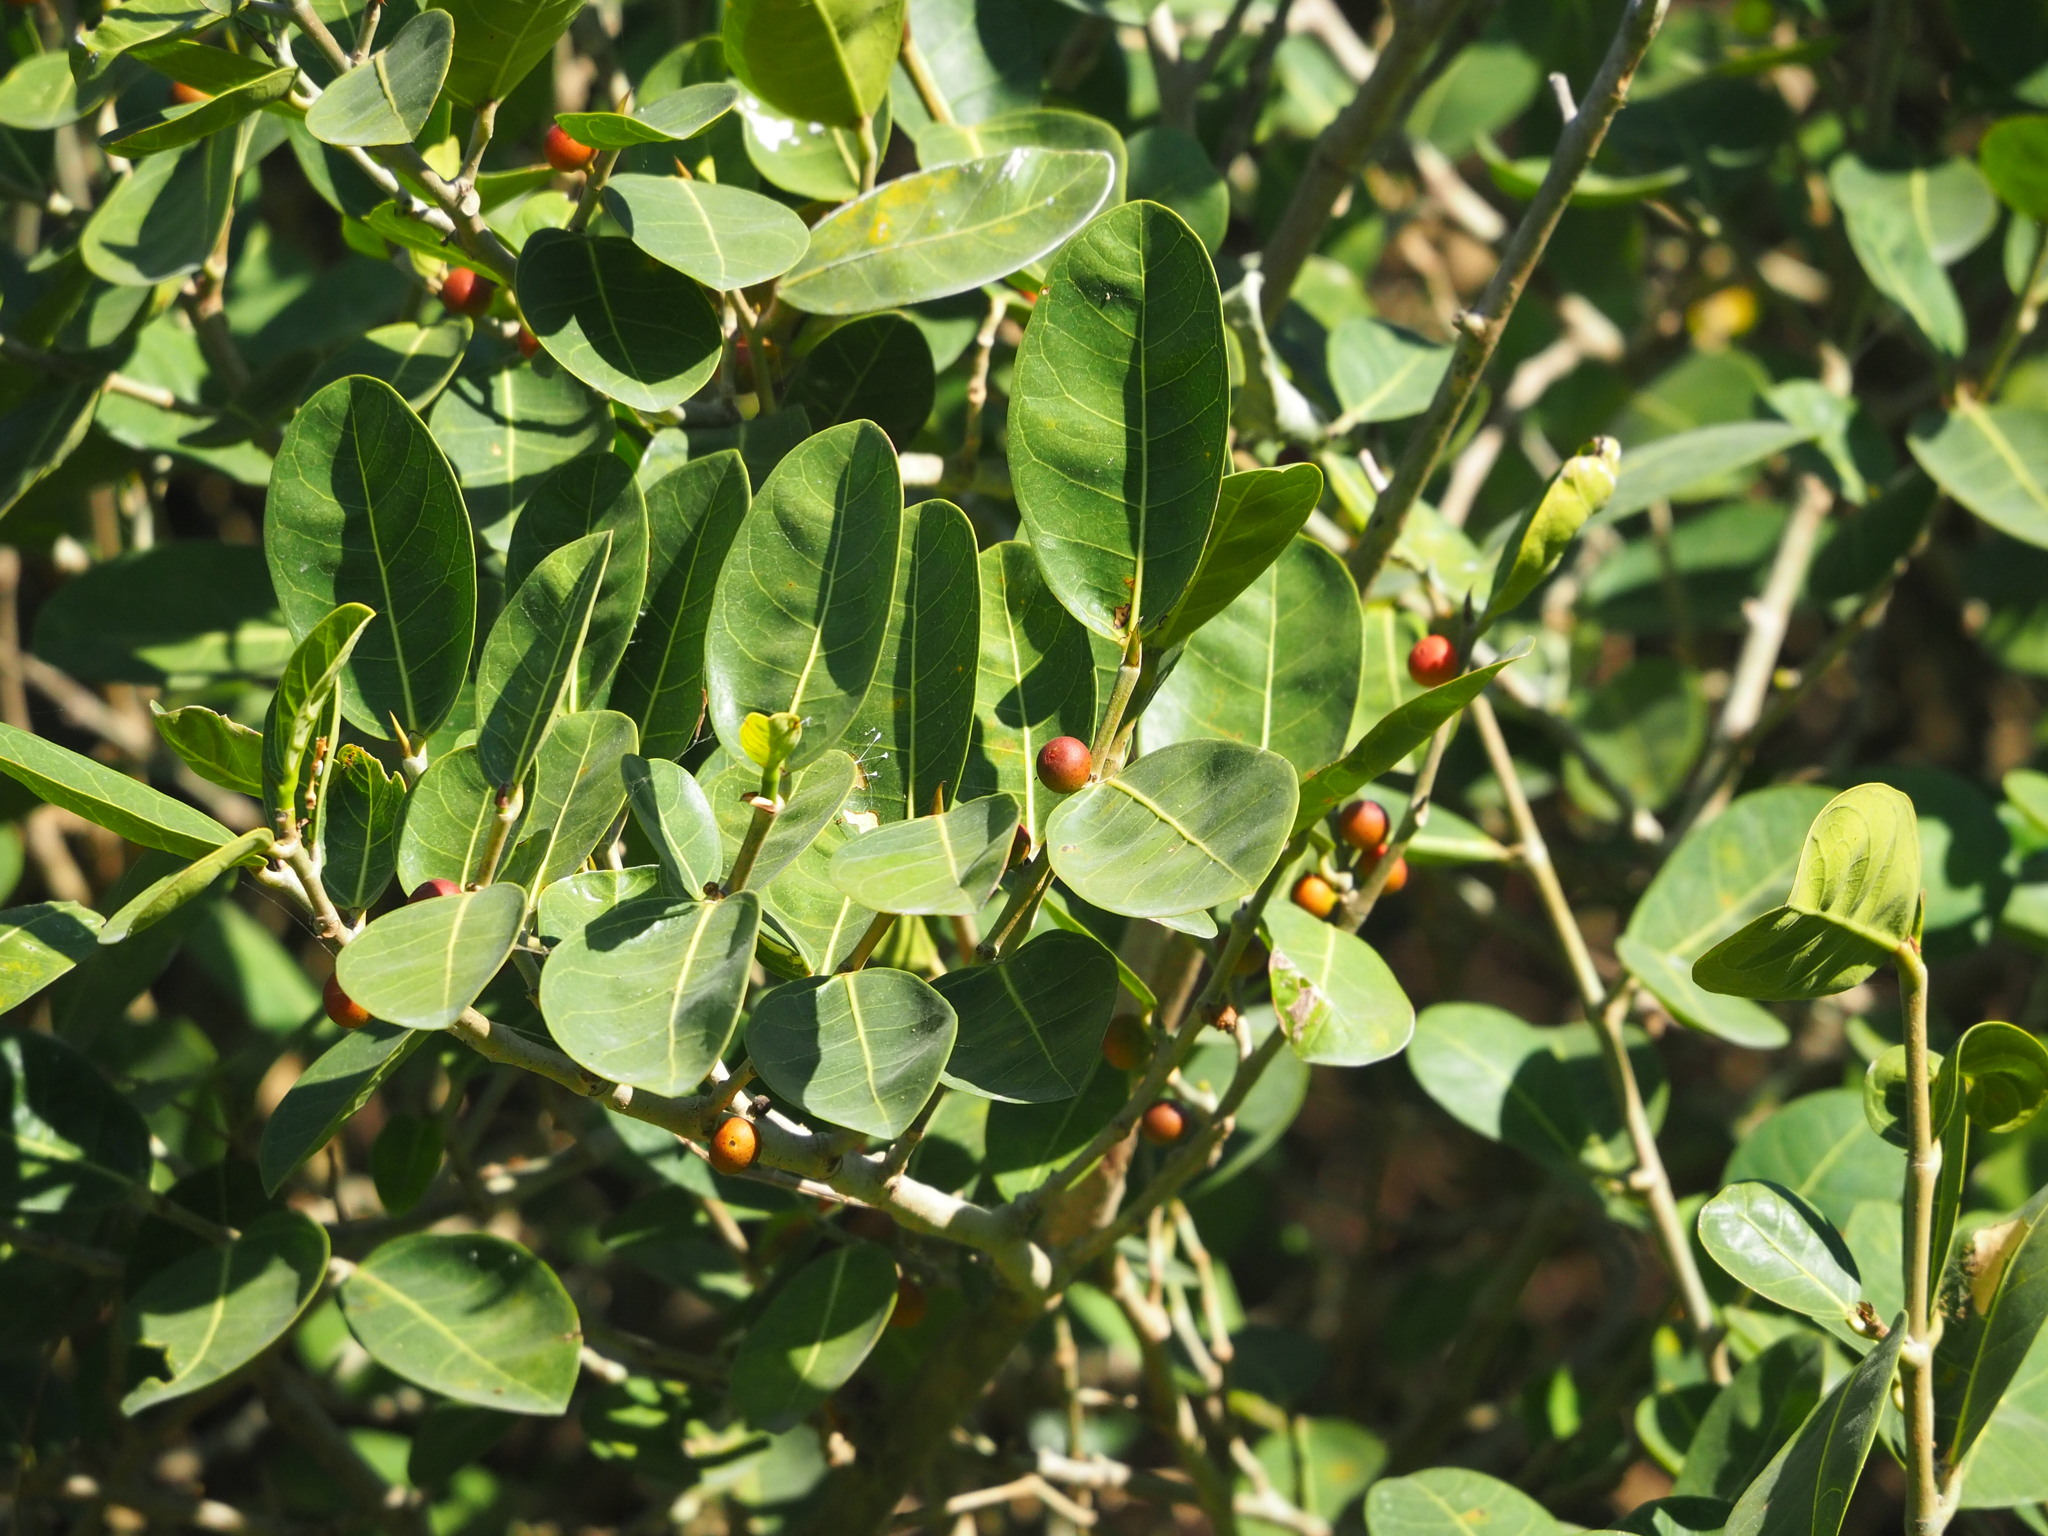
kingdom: Plantae
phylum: Tracheophyta
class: Magnoliopsida
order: Rosales
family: Moraceae
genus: Ficus
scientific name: Ficus tinctoria
